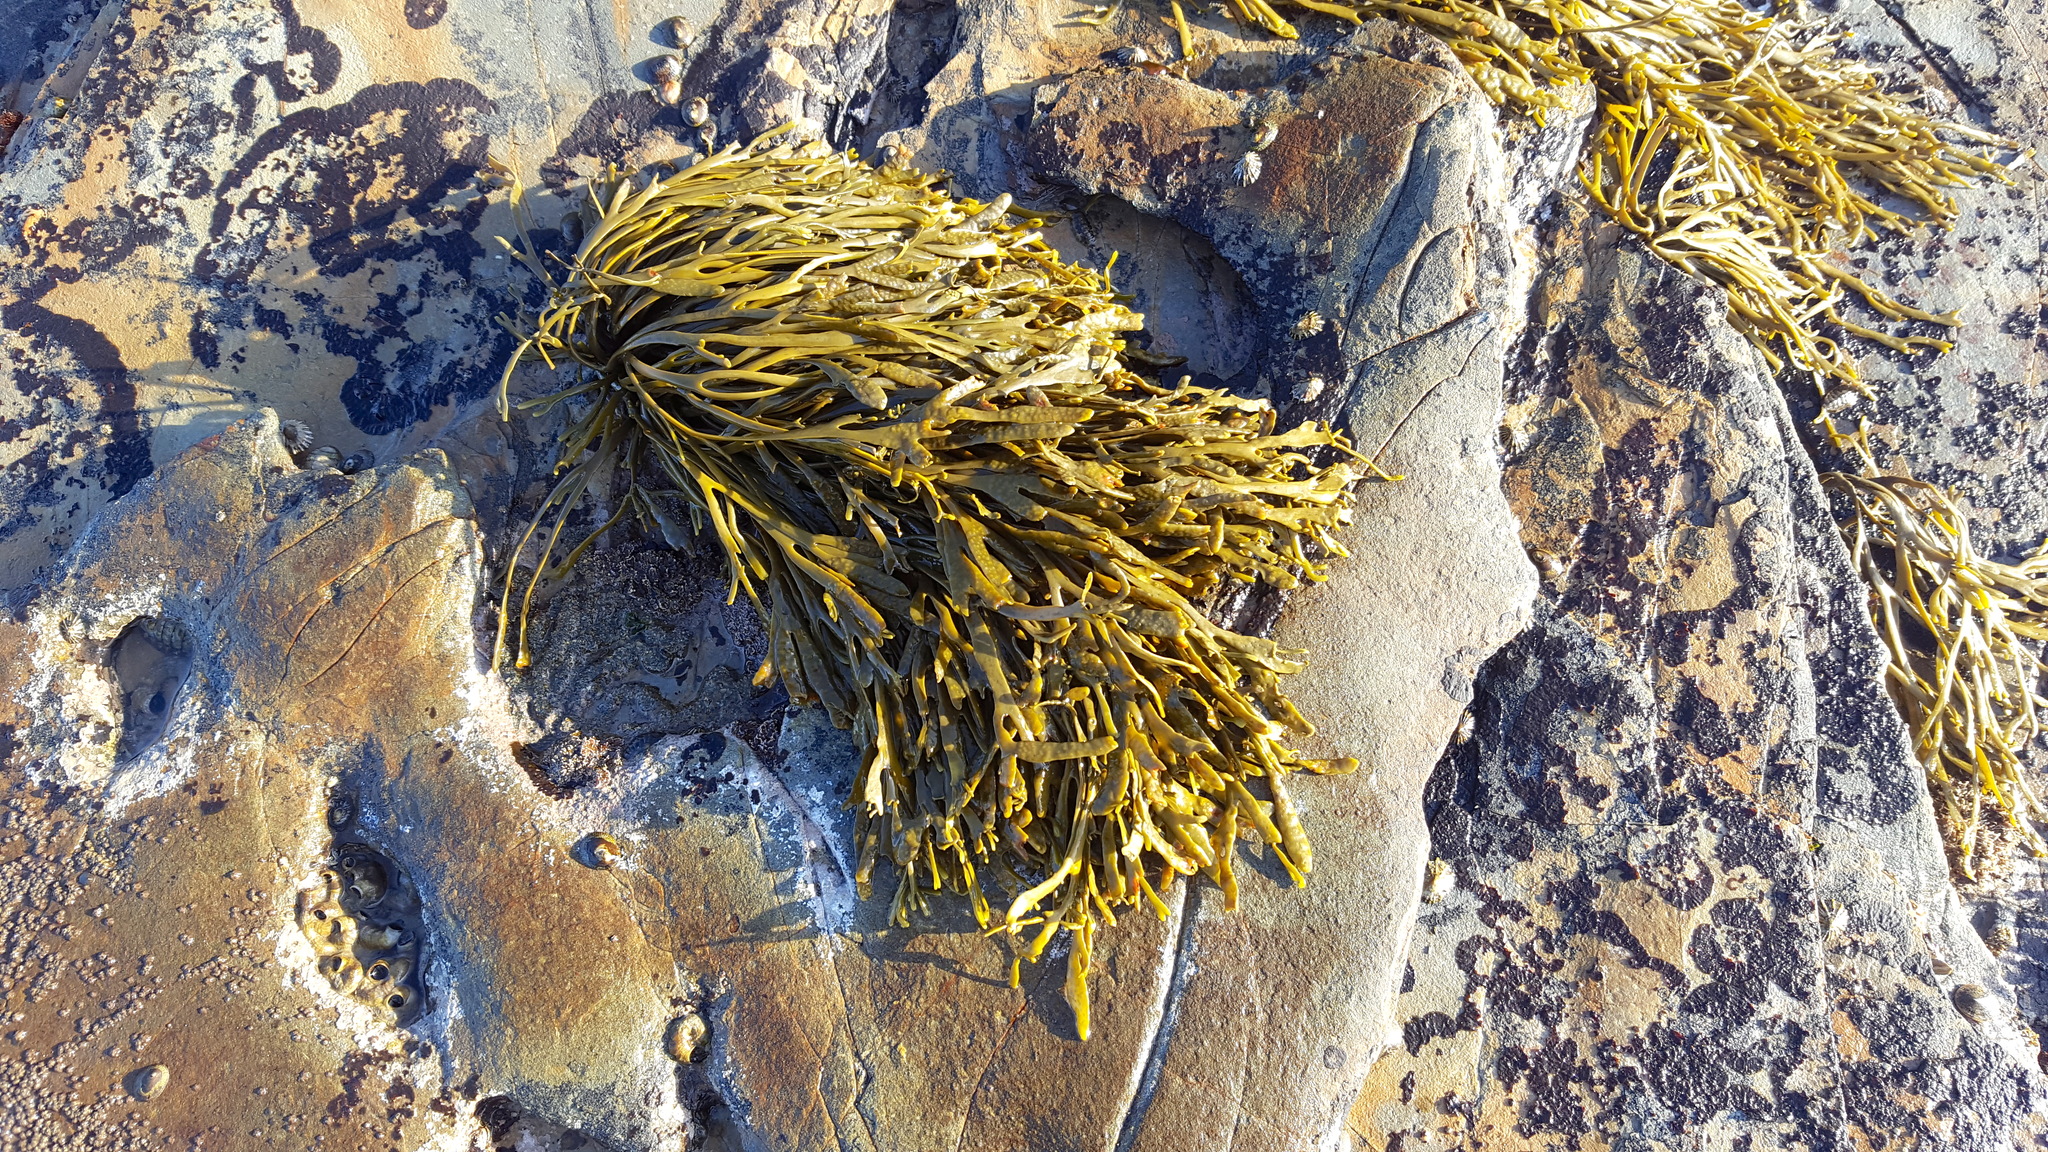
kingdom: Chromista
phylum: Ochrophyta
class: Phaeophyceae
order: Fucales
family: Fucaceae
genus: Silvetia
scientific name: Silvetia
